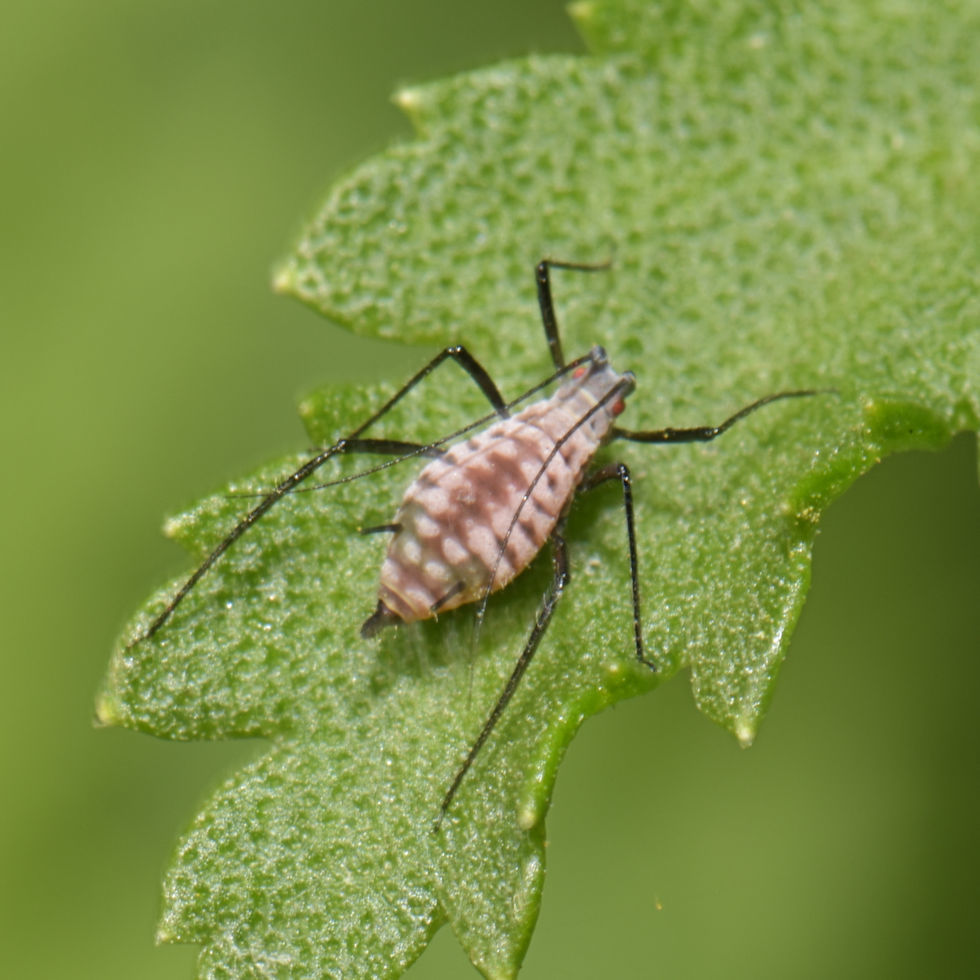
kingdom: Animalia
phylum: Arthropoda
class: Insecta
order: Hemiptera
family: Aphididae
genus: Macrosiphoniella
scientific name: Macrosiphoniella tanacetaria
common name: Aphid
